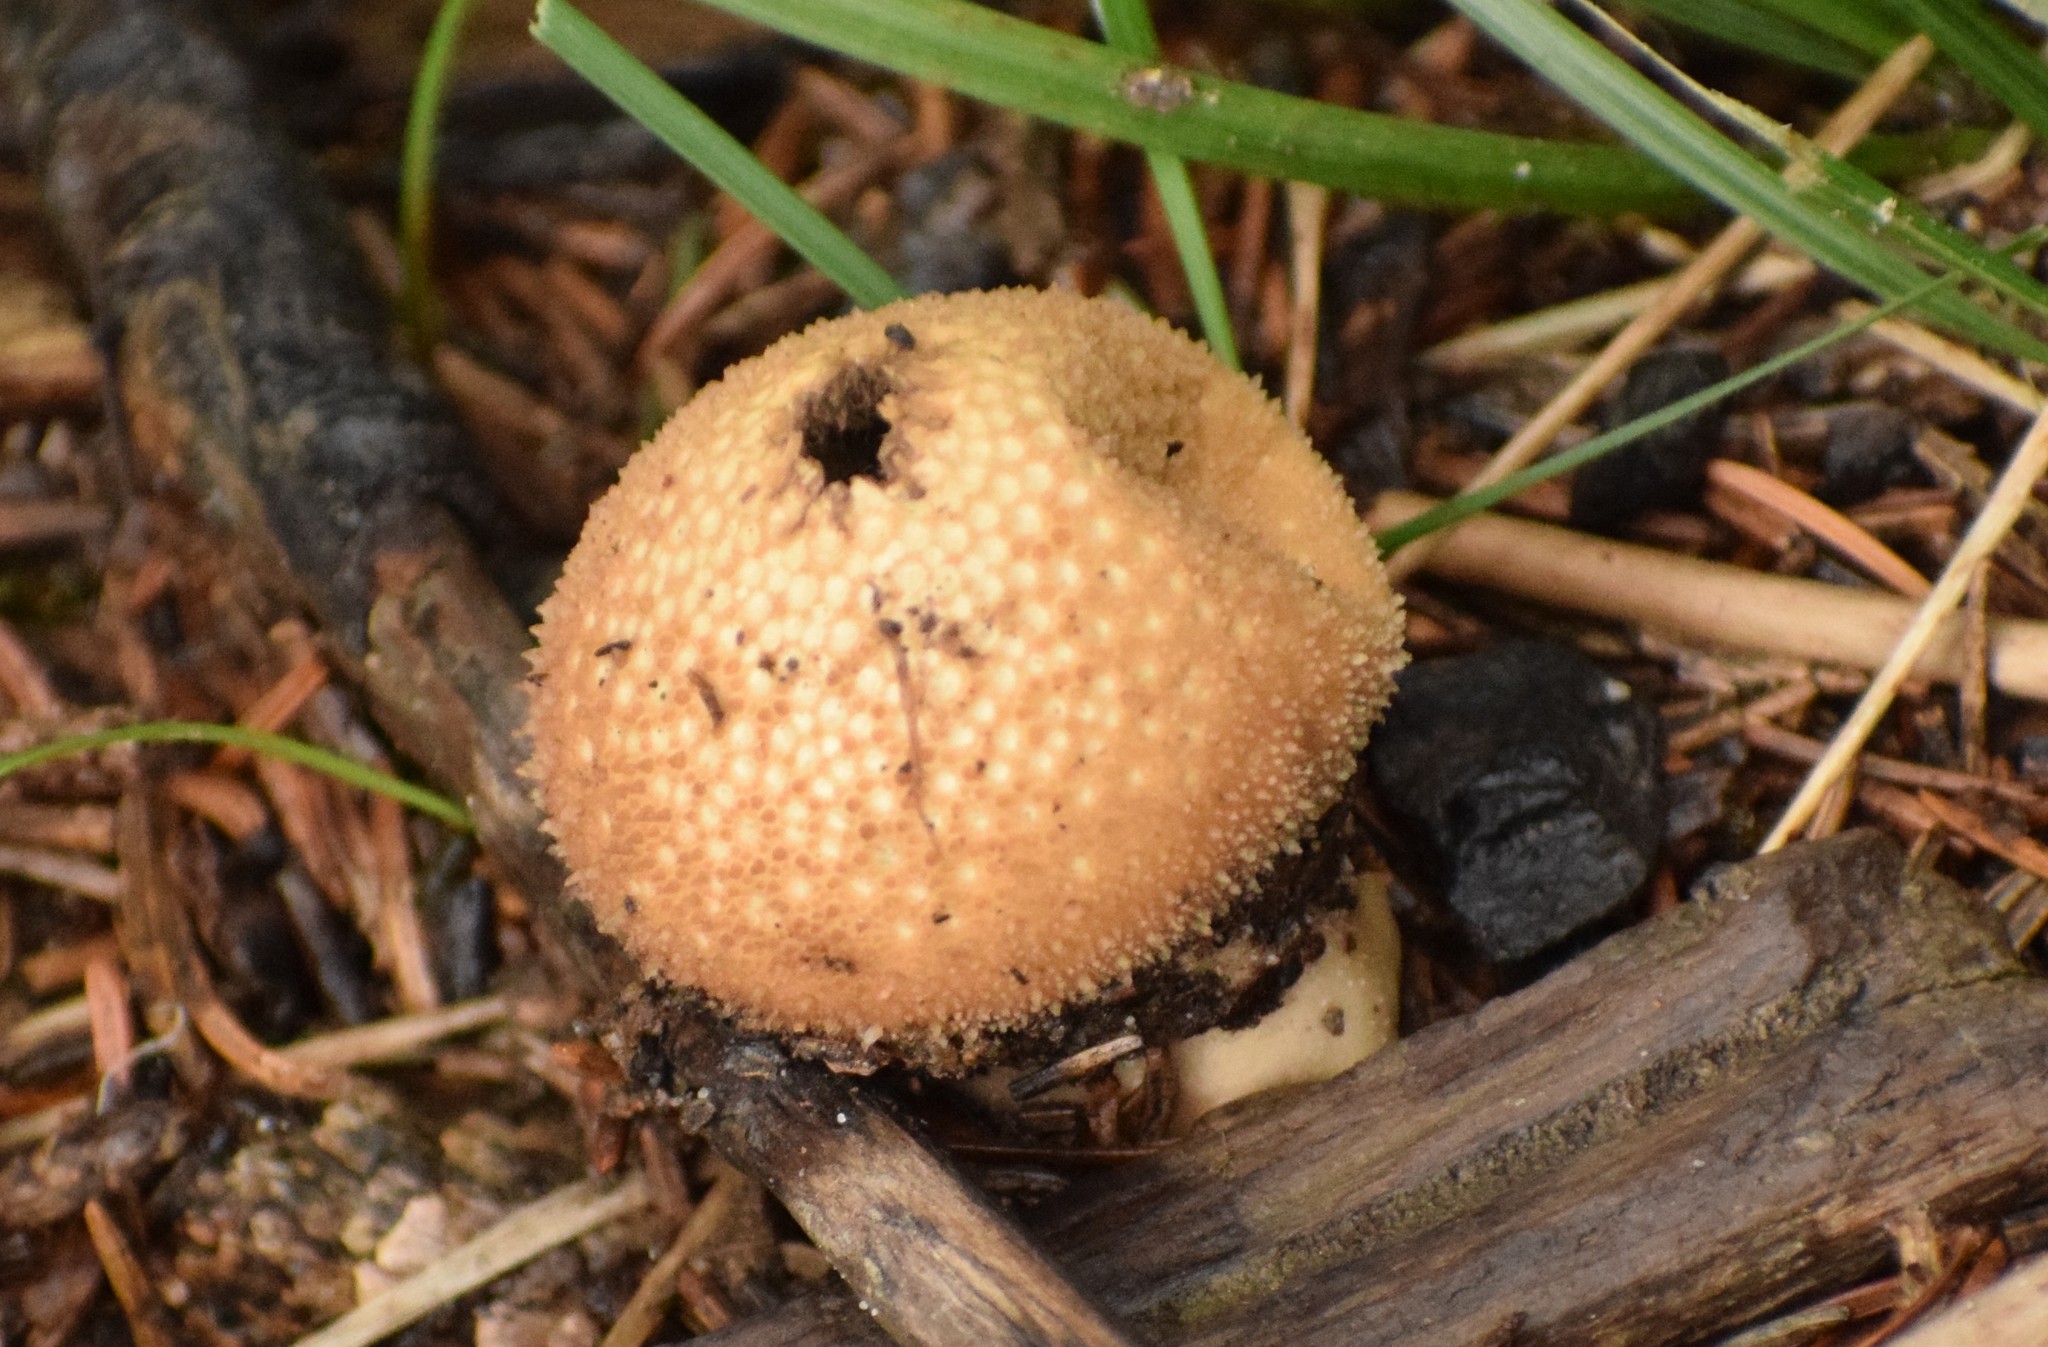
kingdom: Fungi
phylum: Basidiomycota
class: Agaricomycetes
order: Agaricales
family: Lycoperdaceae
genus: Lycoperdon
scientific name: Lycoperdon perlatum
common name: Common puffball
